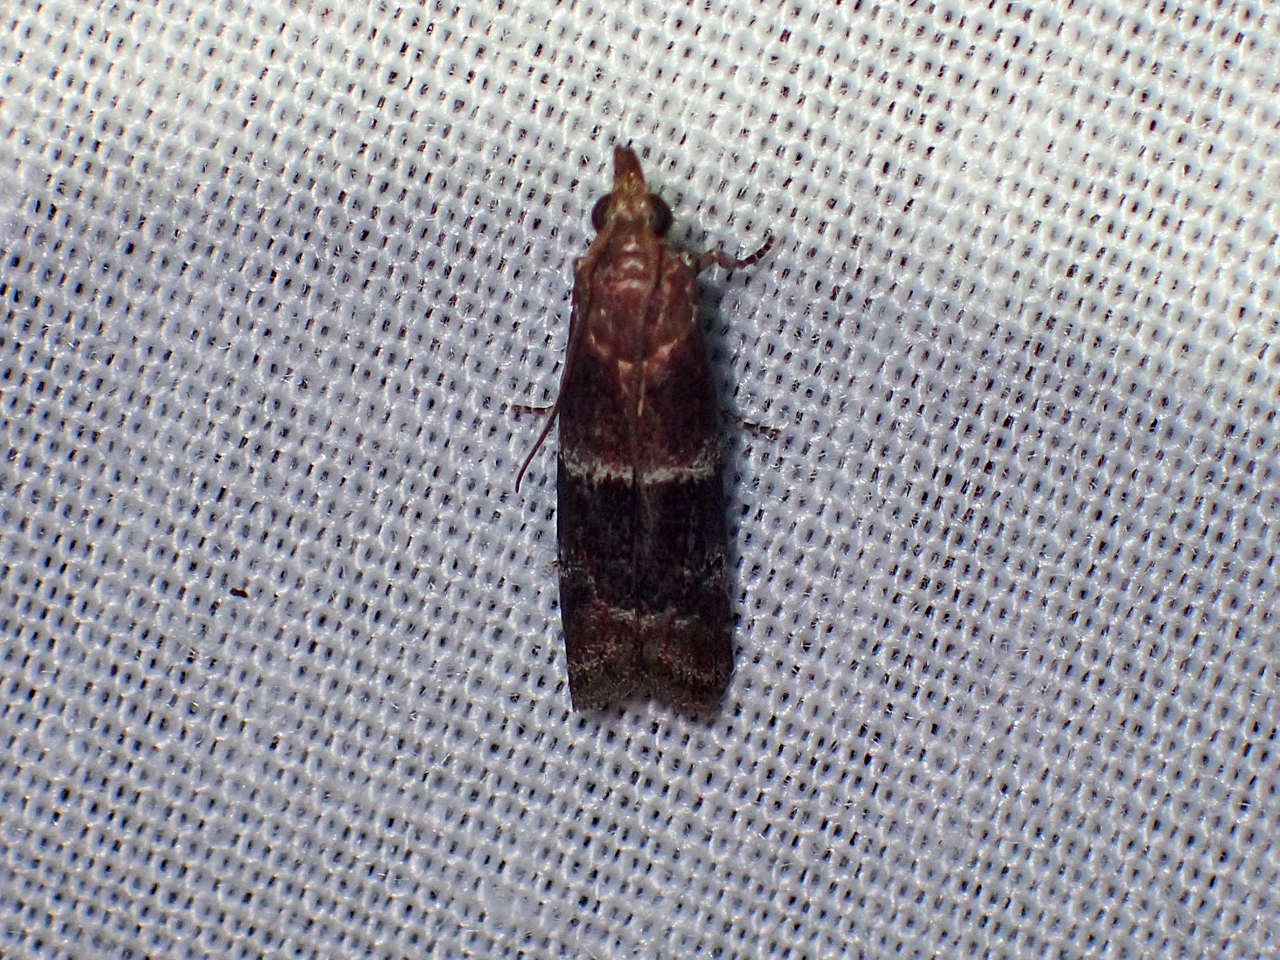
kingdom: Animalia
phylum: Arthropoda
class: Insecta
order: Lepidoptera
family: Pyralidae
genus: Moodna
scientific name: Moodna ostrinella
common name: Darker moodna moth
